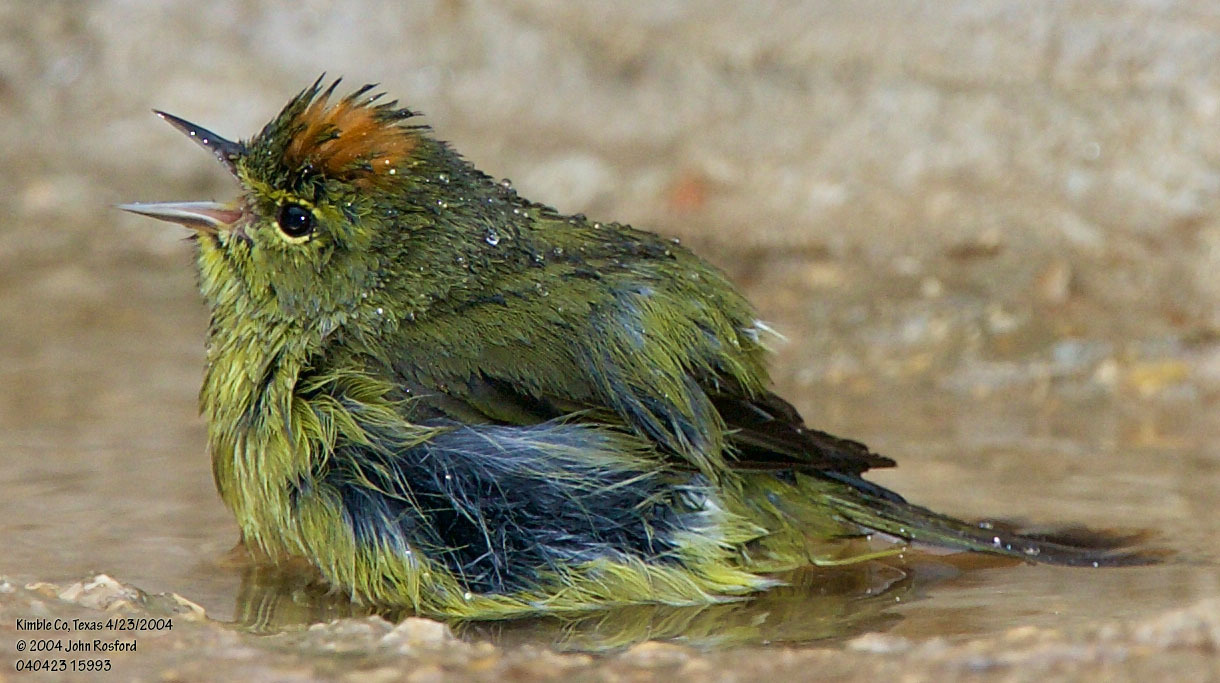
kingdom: Animalia
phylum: Chordata
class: Aves
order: Passeriformes
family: Parulidae
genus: Leiothlypis
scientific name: Leiothlypis celata
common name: Orange-crowned warbler
